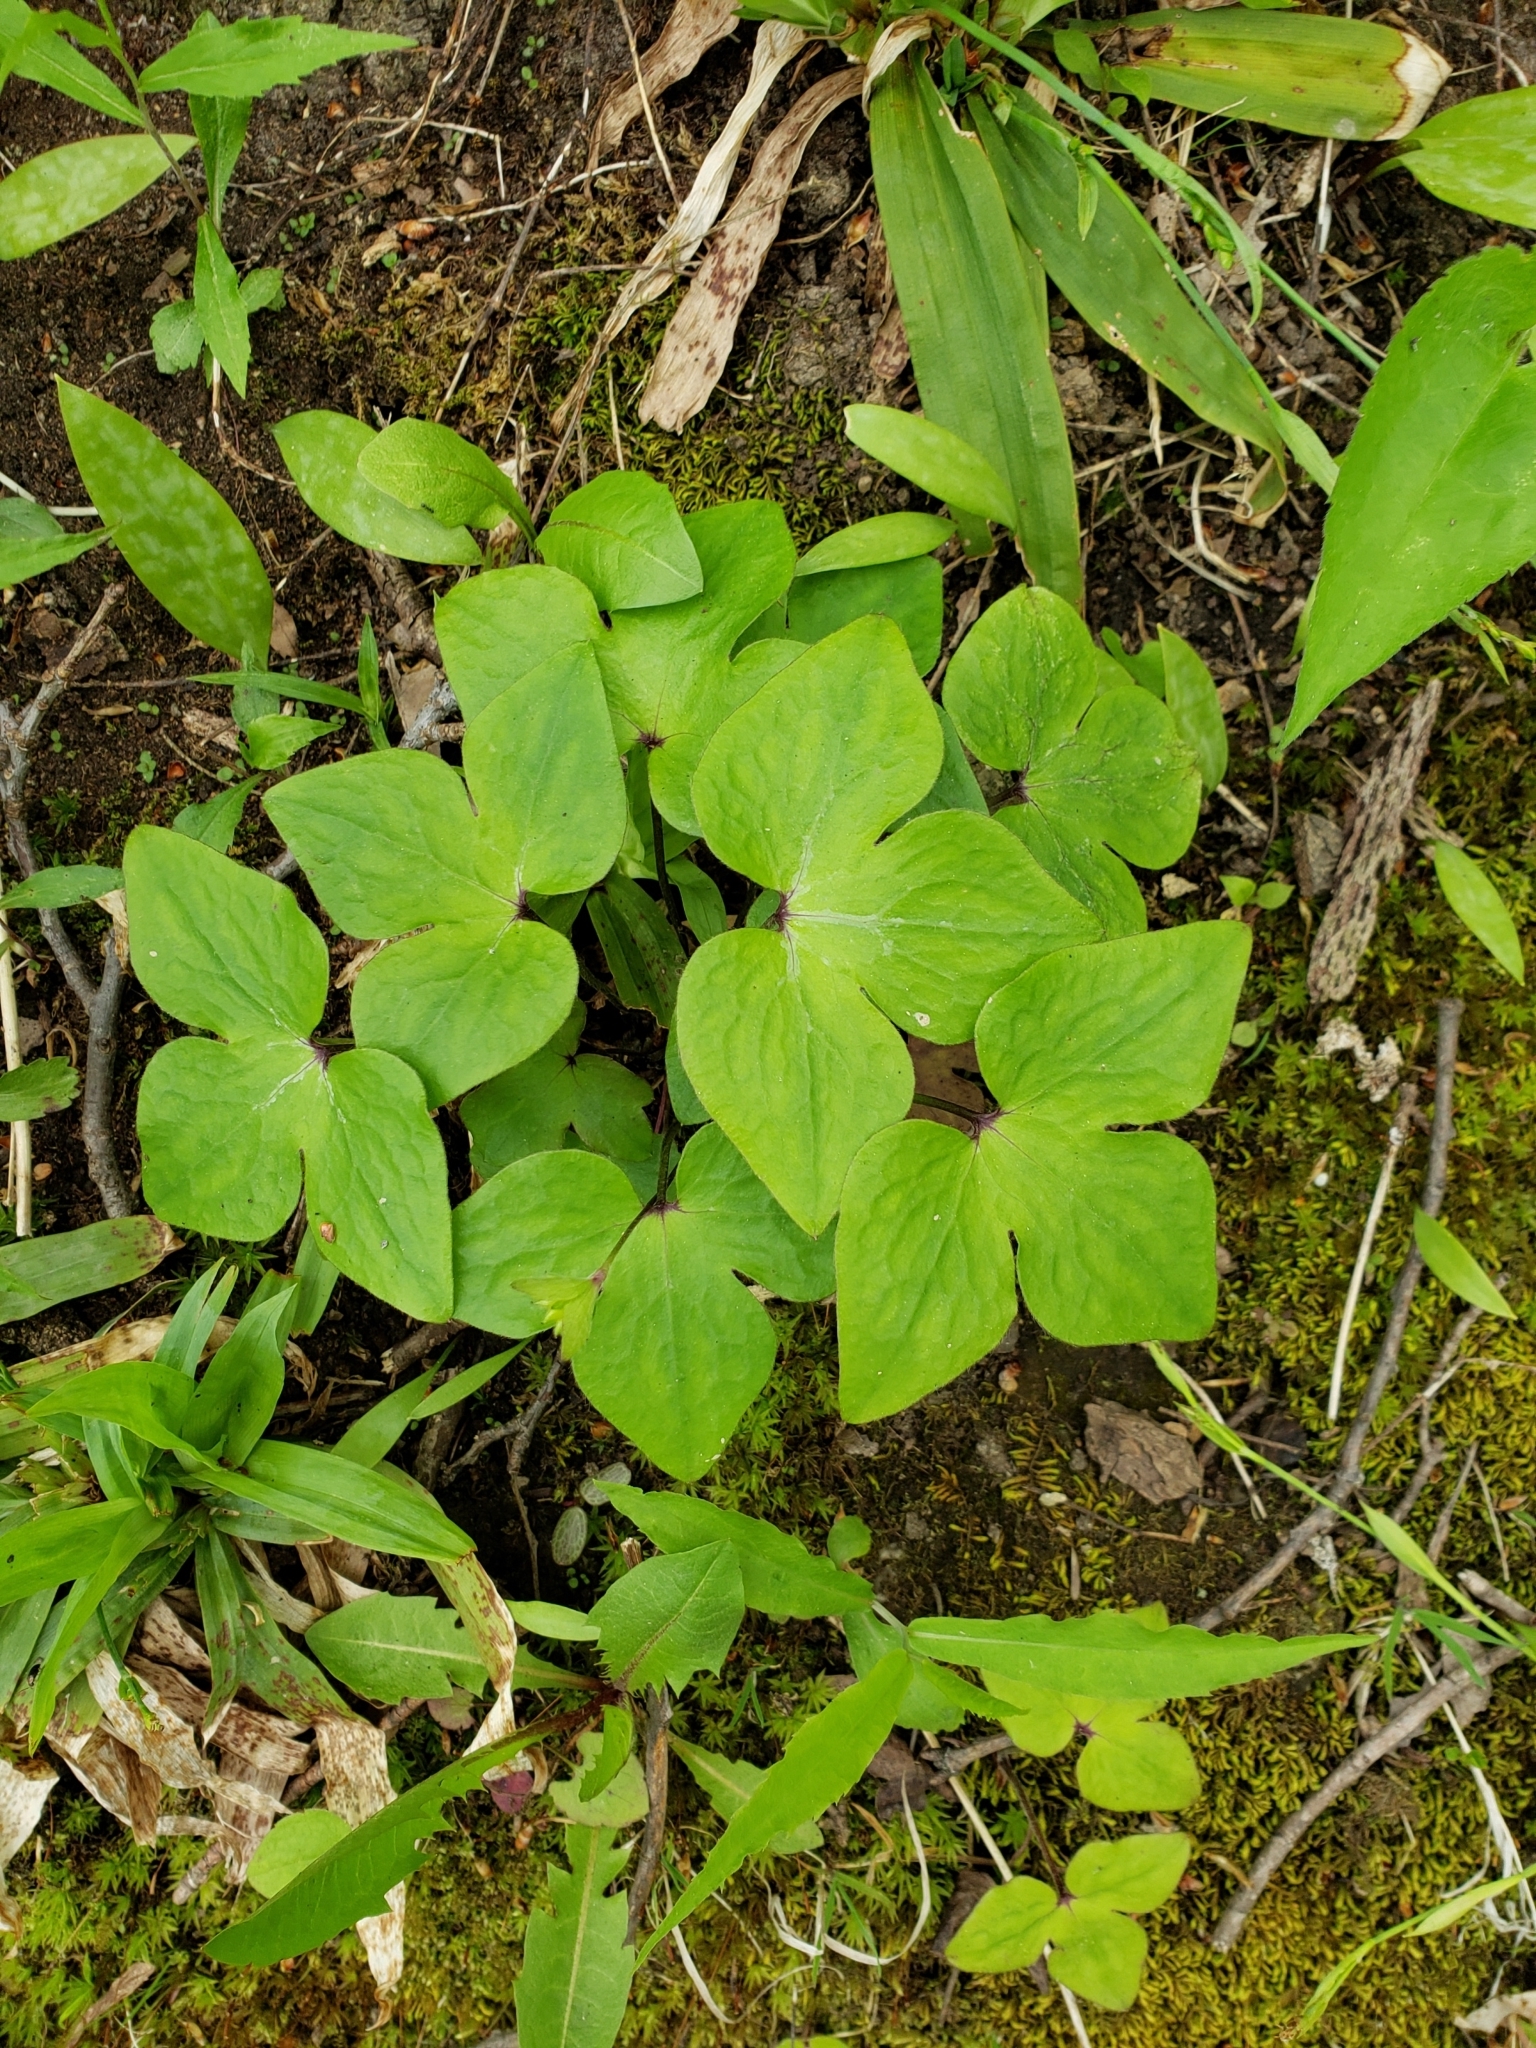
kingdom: Plantae
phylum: Tracheophyta
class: Magnoliopsida
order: Ranunculales
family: Ranunculaceae
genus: Hepatica
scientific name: Hepatica acutiloba
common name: Sharp-lobed hepatica
